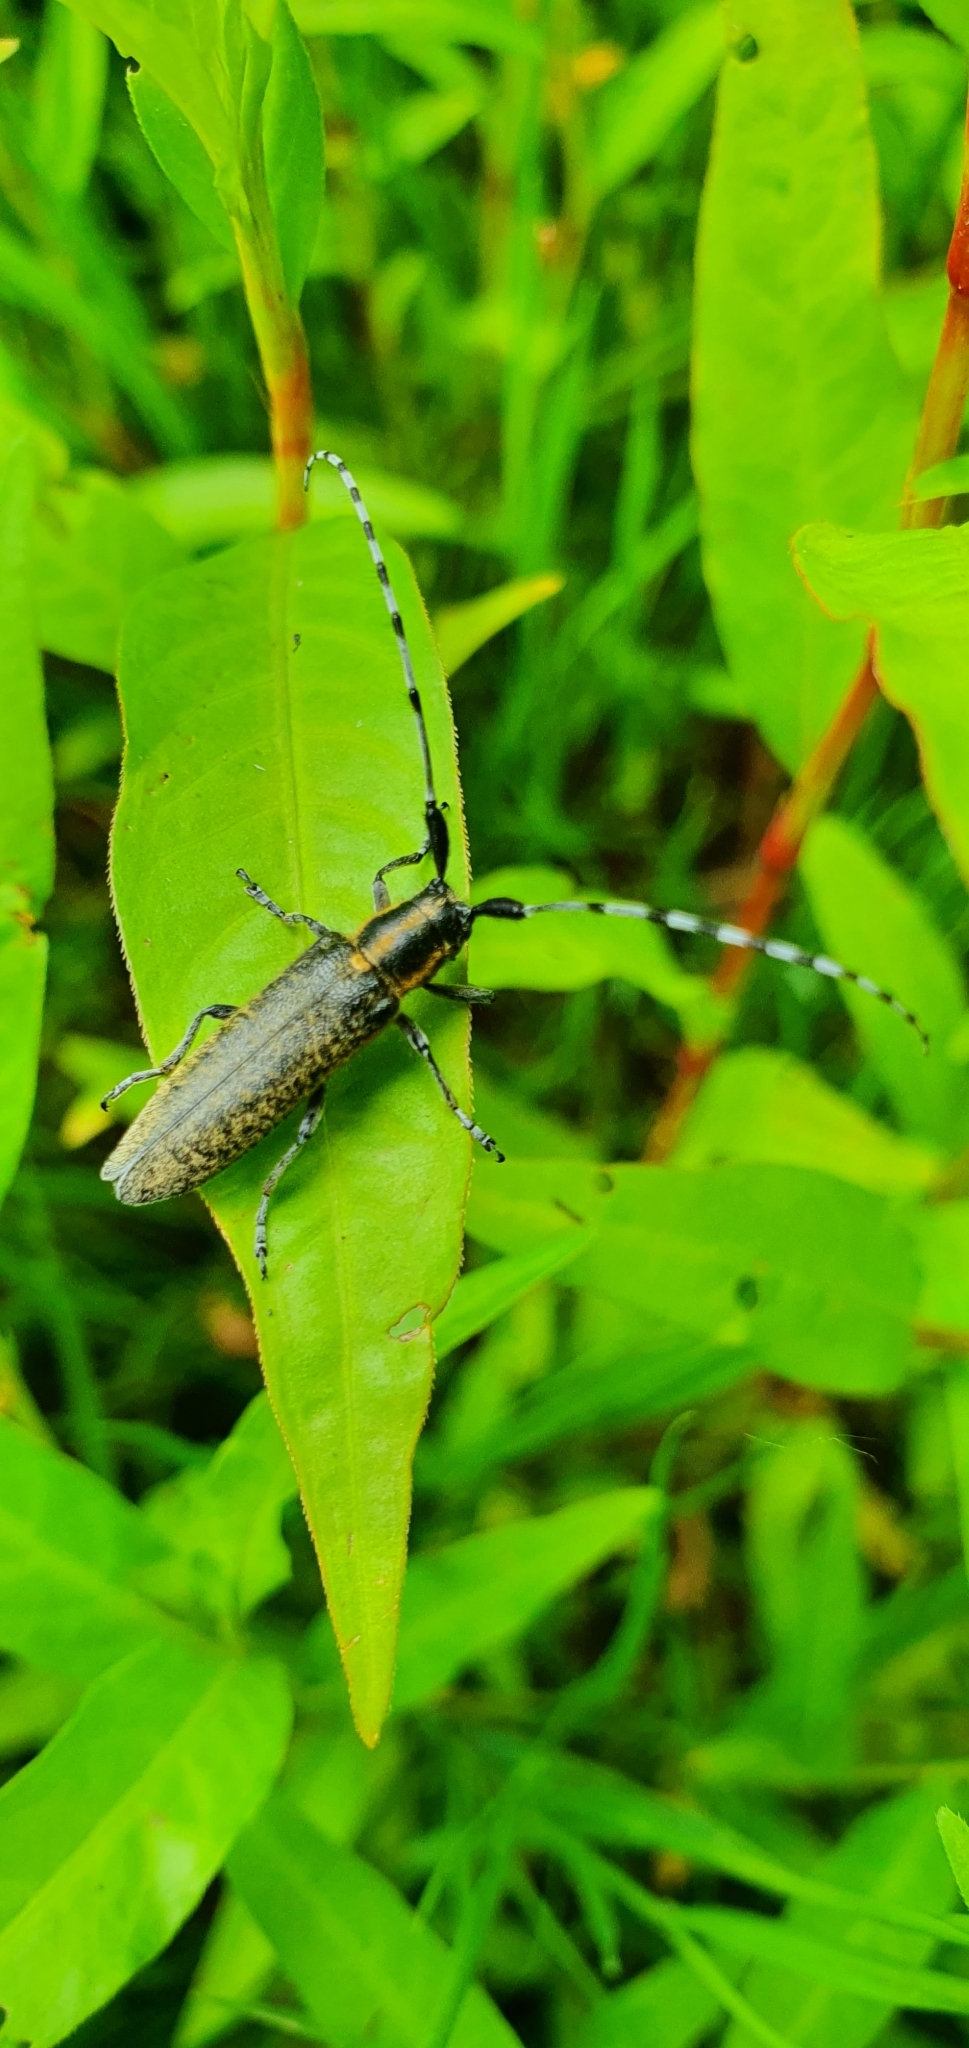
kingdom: Animalia
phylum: Arthropoda
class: Insecta
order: Coleoptera
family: Cerambycidae
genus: Agapanthia
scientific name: Agapanthia villosoviridescens
